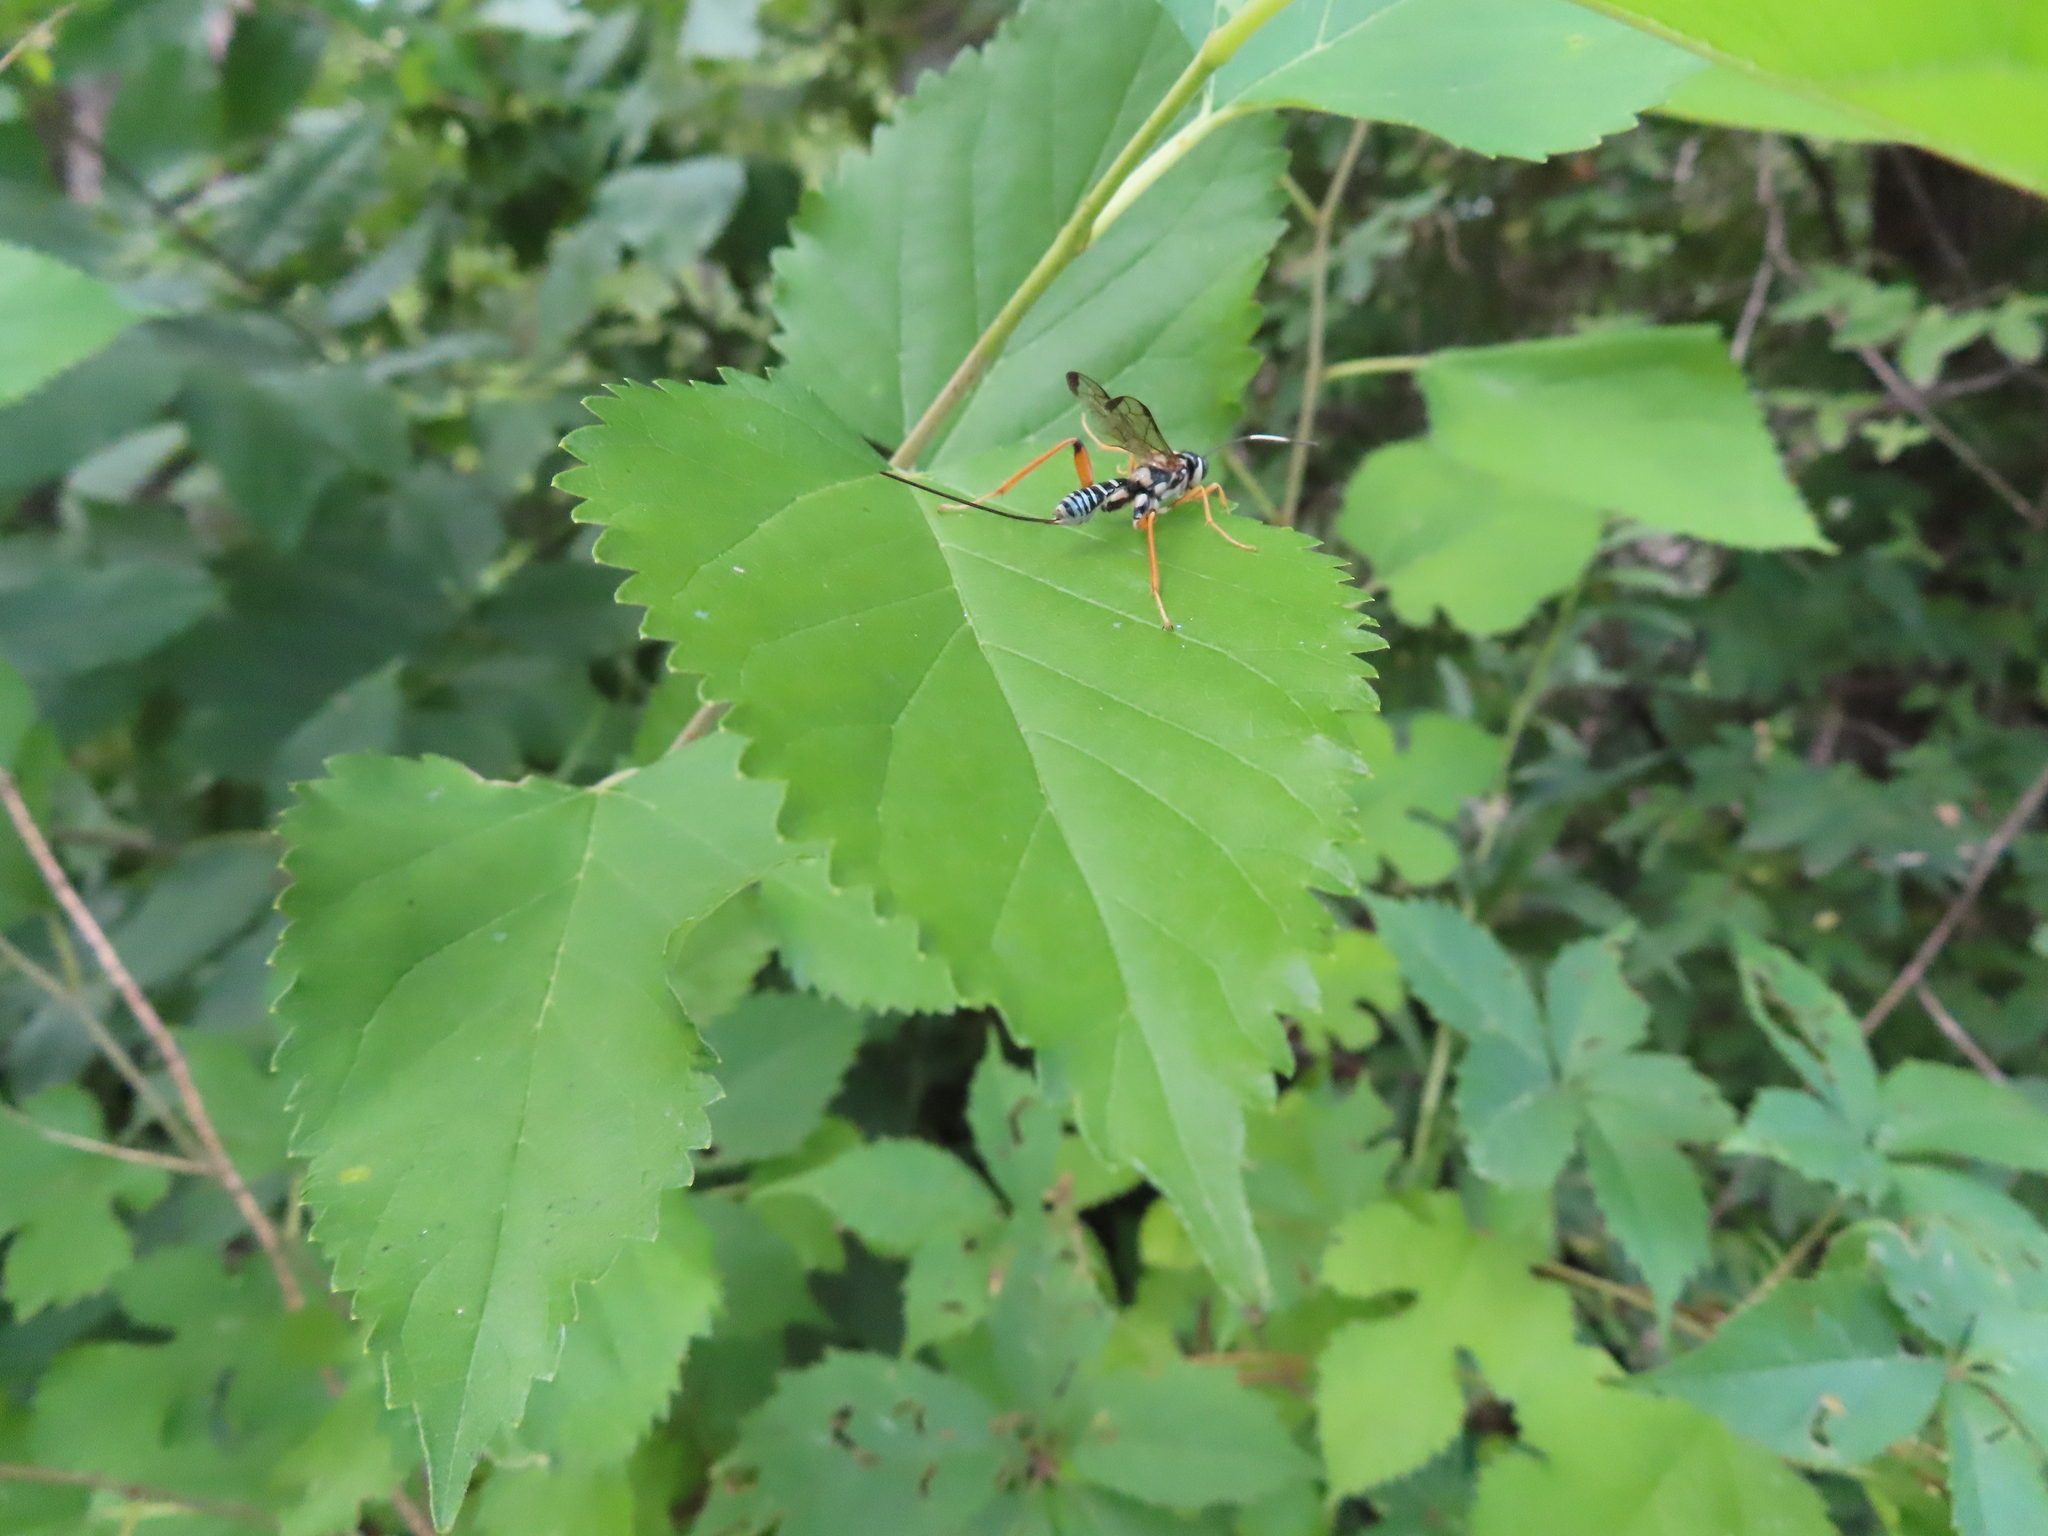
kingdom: Animalia
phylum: Arthropoda
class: Insecta
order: Hymenoptera
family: Ichneumonidae
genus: Arotes
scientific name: Arotes decorus
